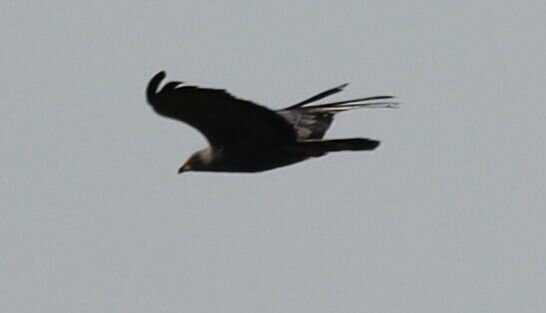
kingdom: Animalia
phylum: Chordata
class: Aves
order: Accipitriformes
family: Accipitridae
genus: Polyboroides
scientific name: Polyboroides typus
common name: African harrier-hawk
